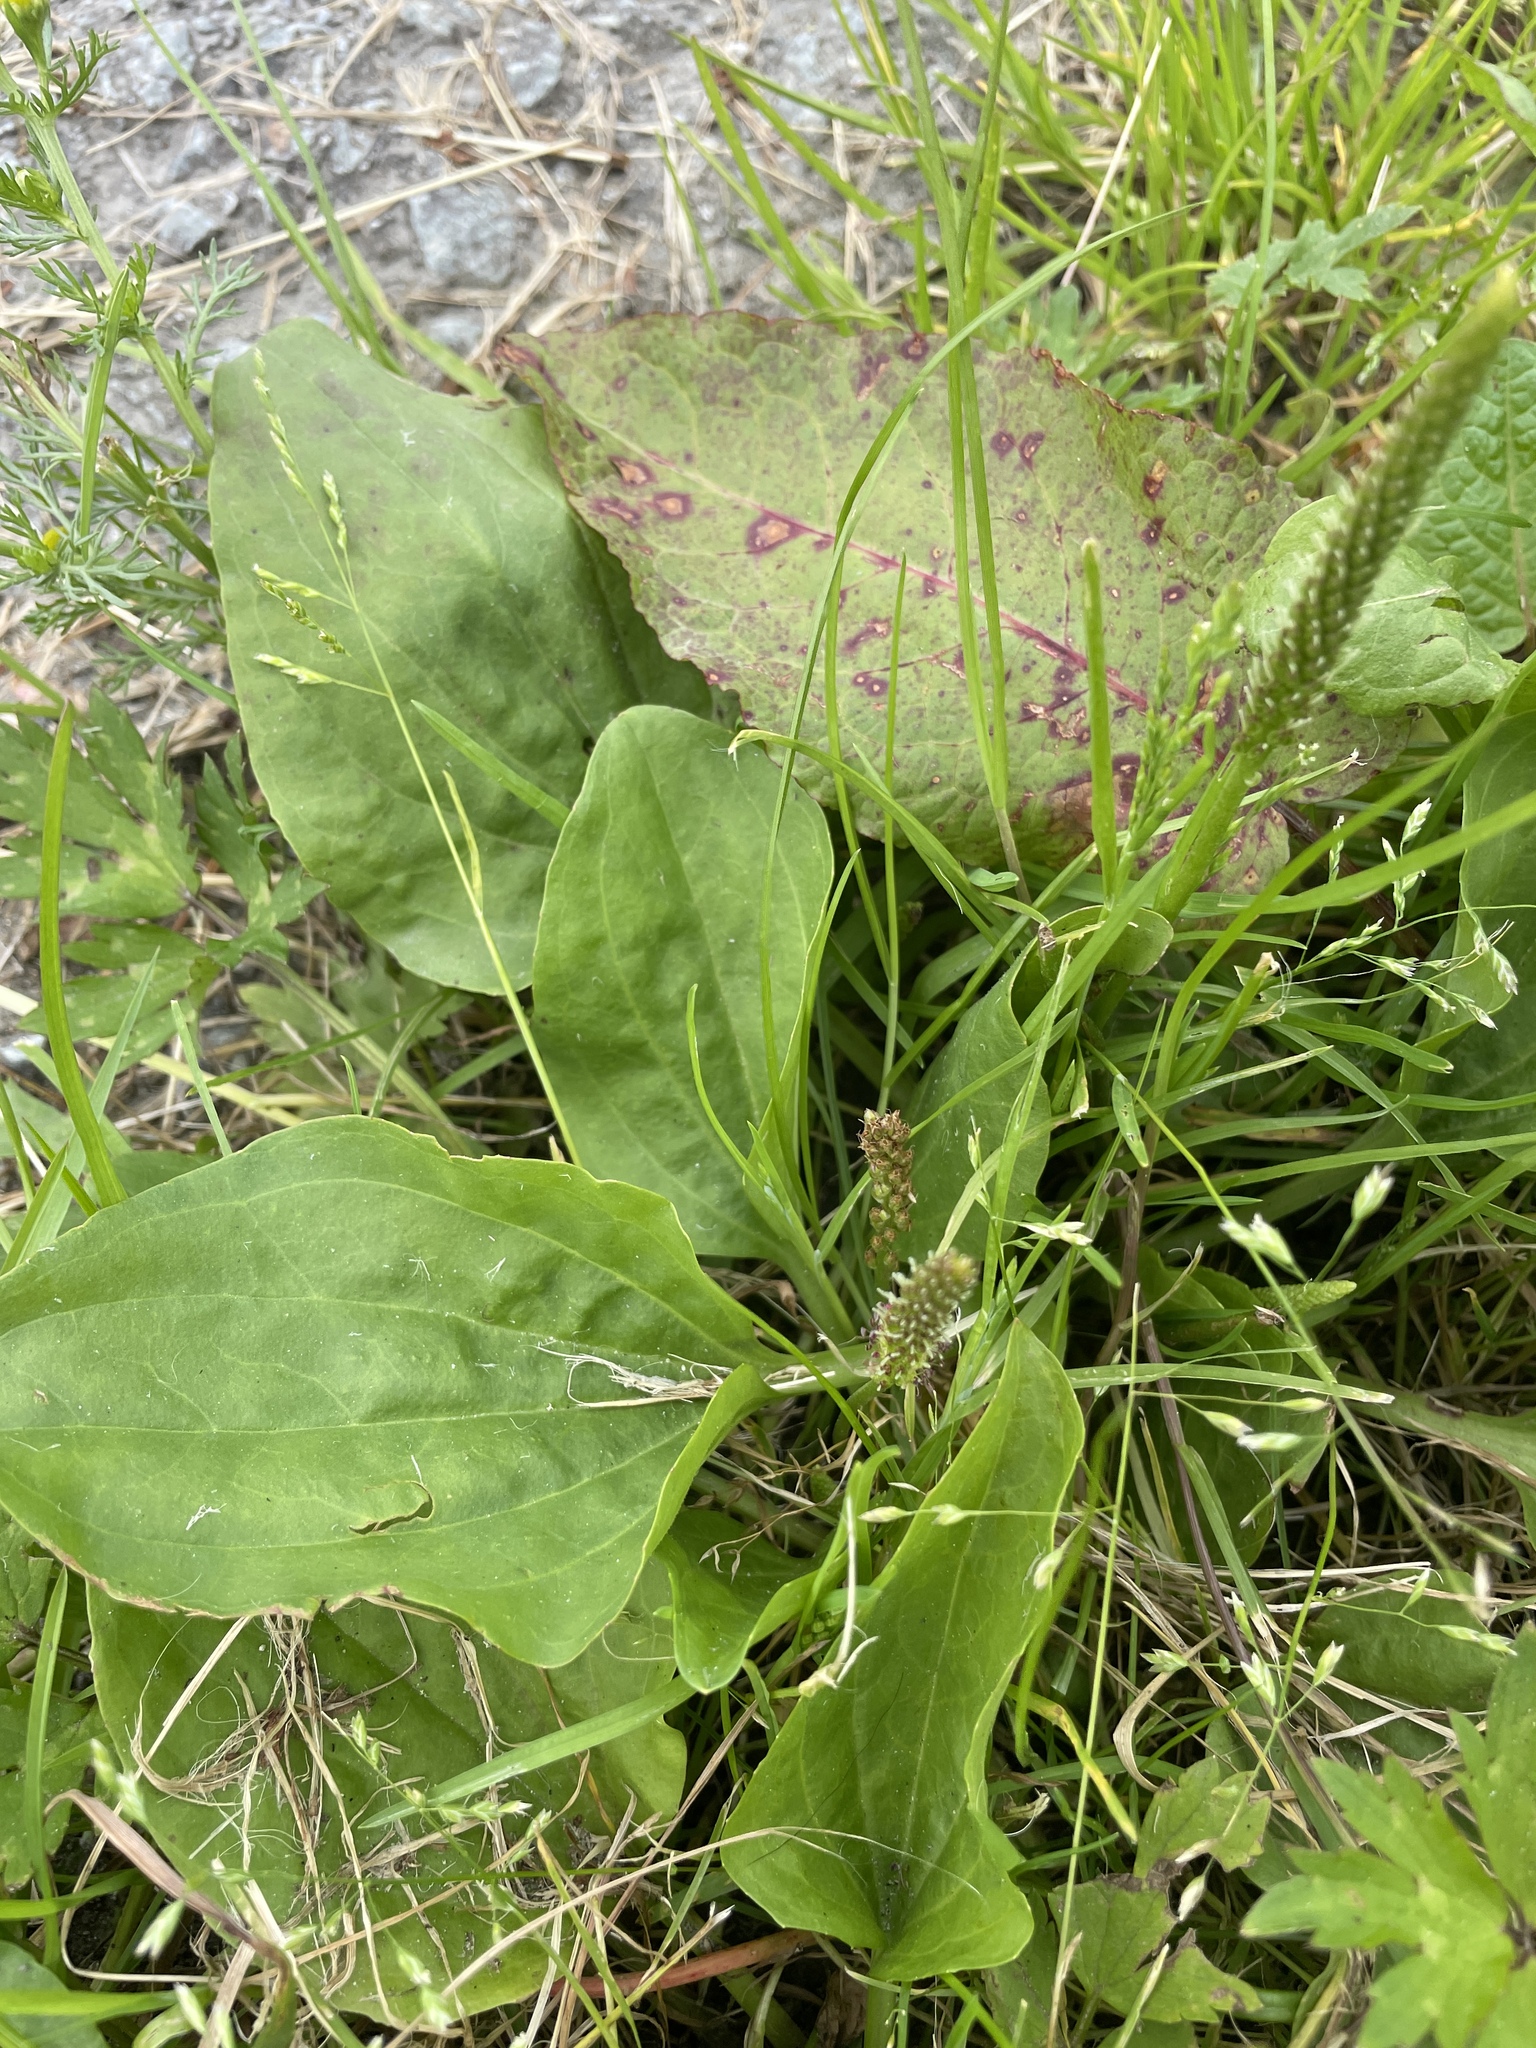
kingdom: Plantae
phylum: Tracheophyta
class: Magnoliopsida
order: Lamiales
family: Plantaginaceae
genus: Plantago
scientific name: Plantago major
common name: Common plantain
